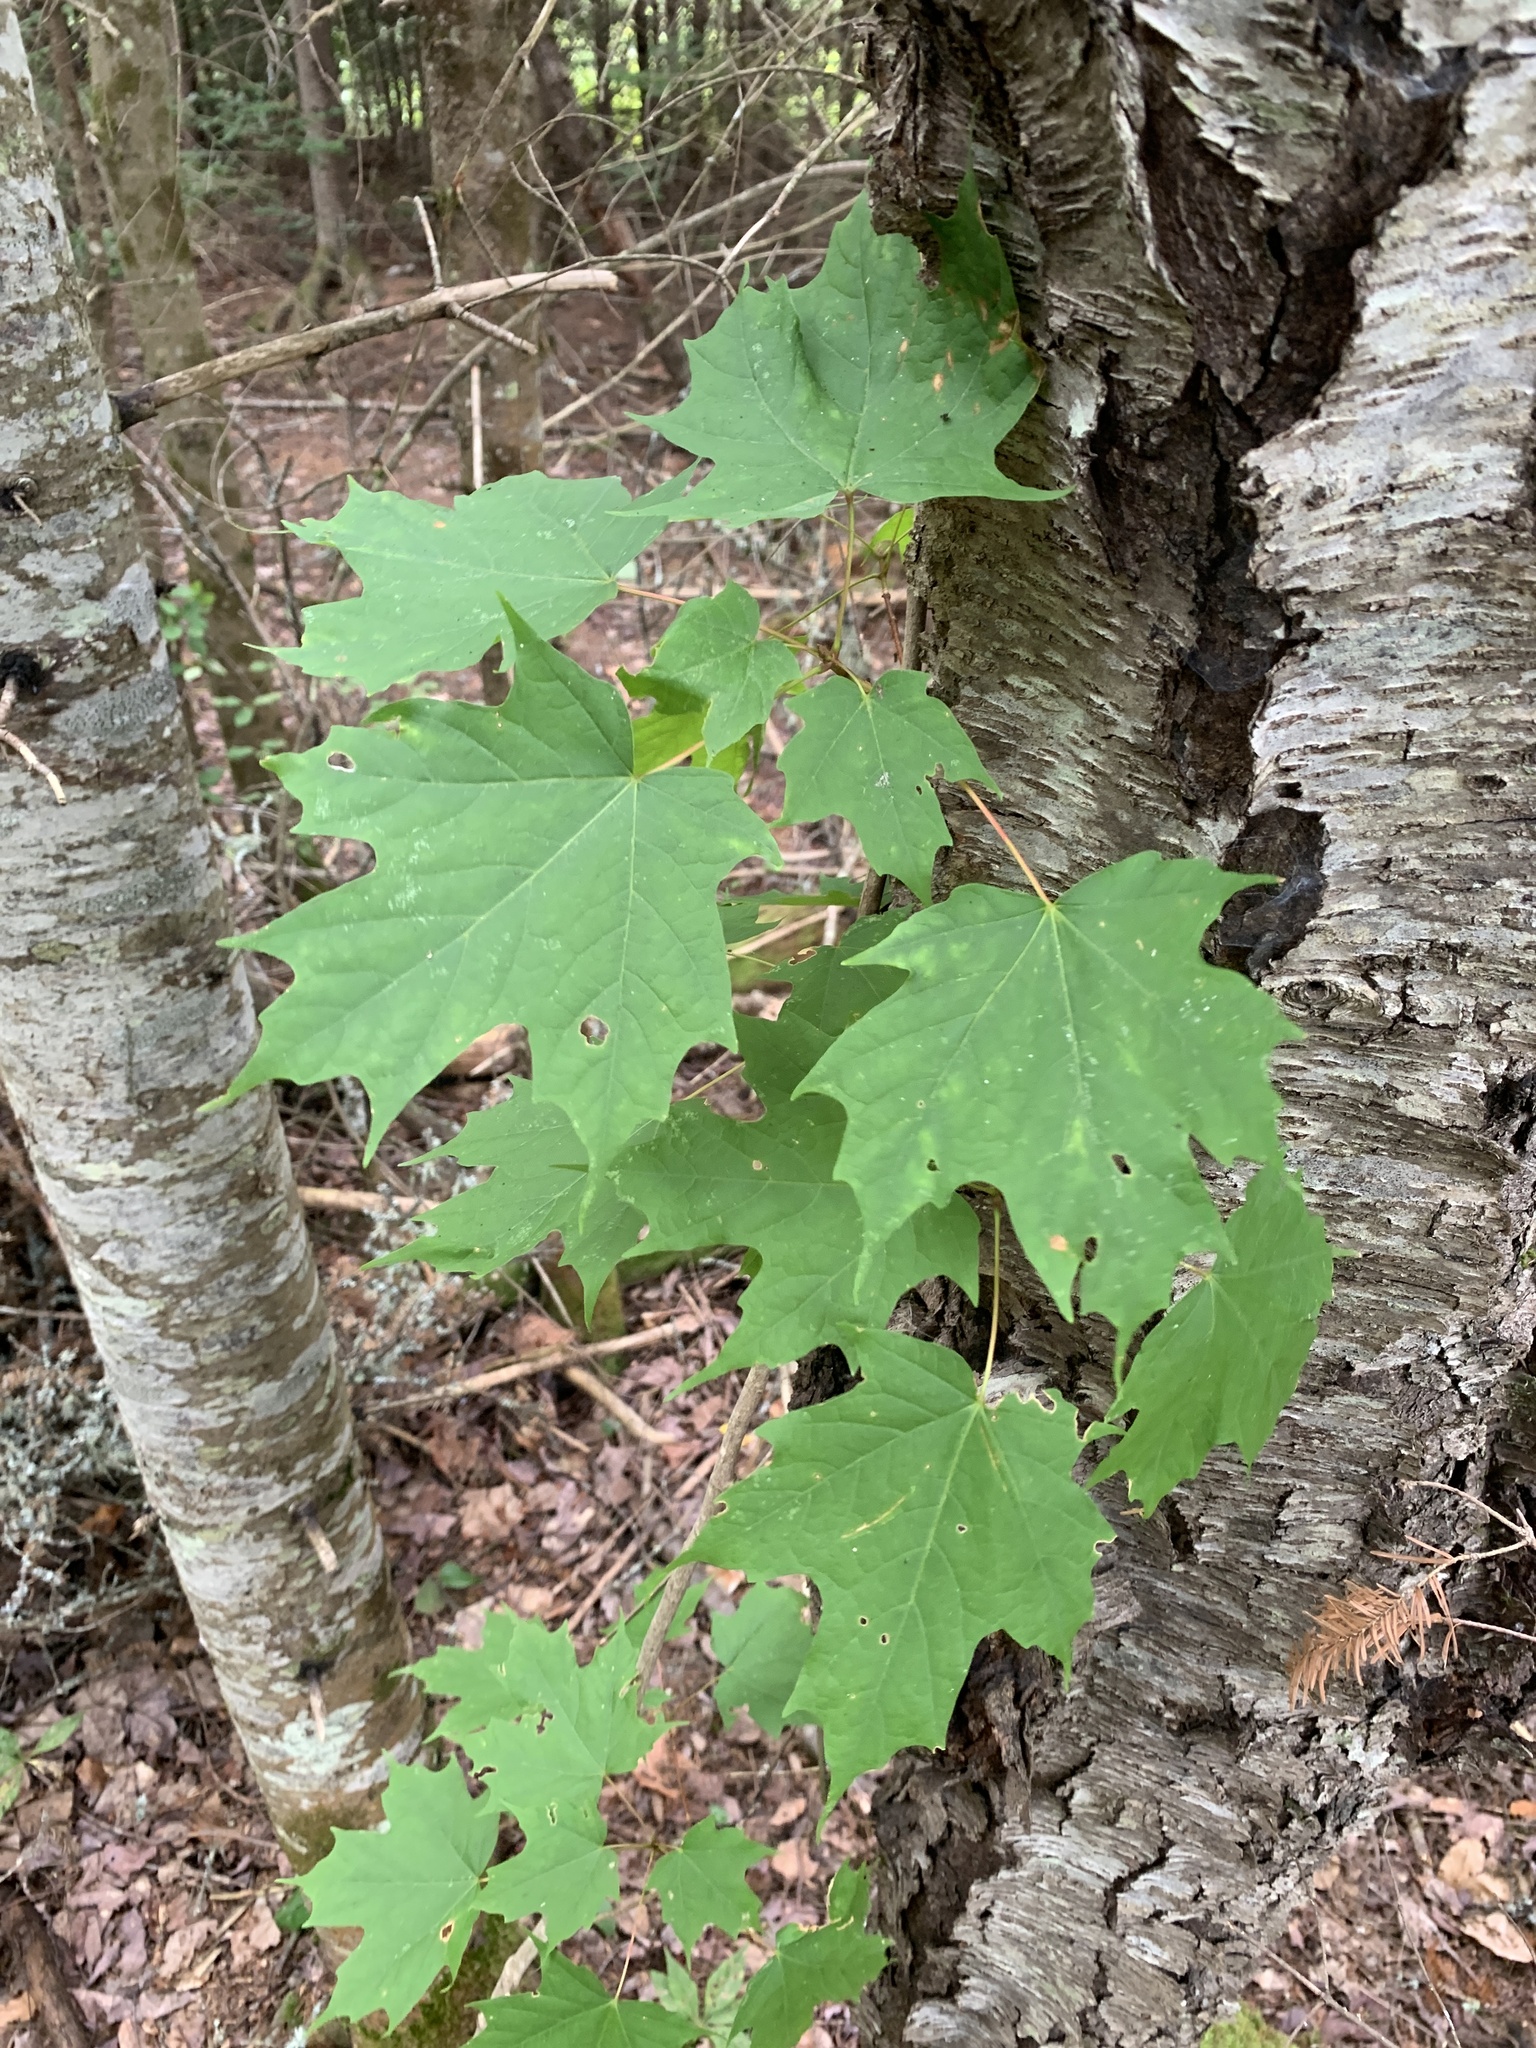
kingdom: Plantae
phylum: Tracheophyta
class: Magnoliopsida
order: Sapindales
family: Sapindaceae
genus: Acer
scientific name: Acer saccharum
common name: Sugar maple
